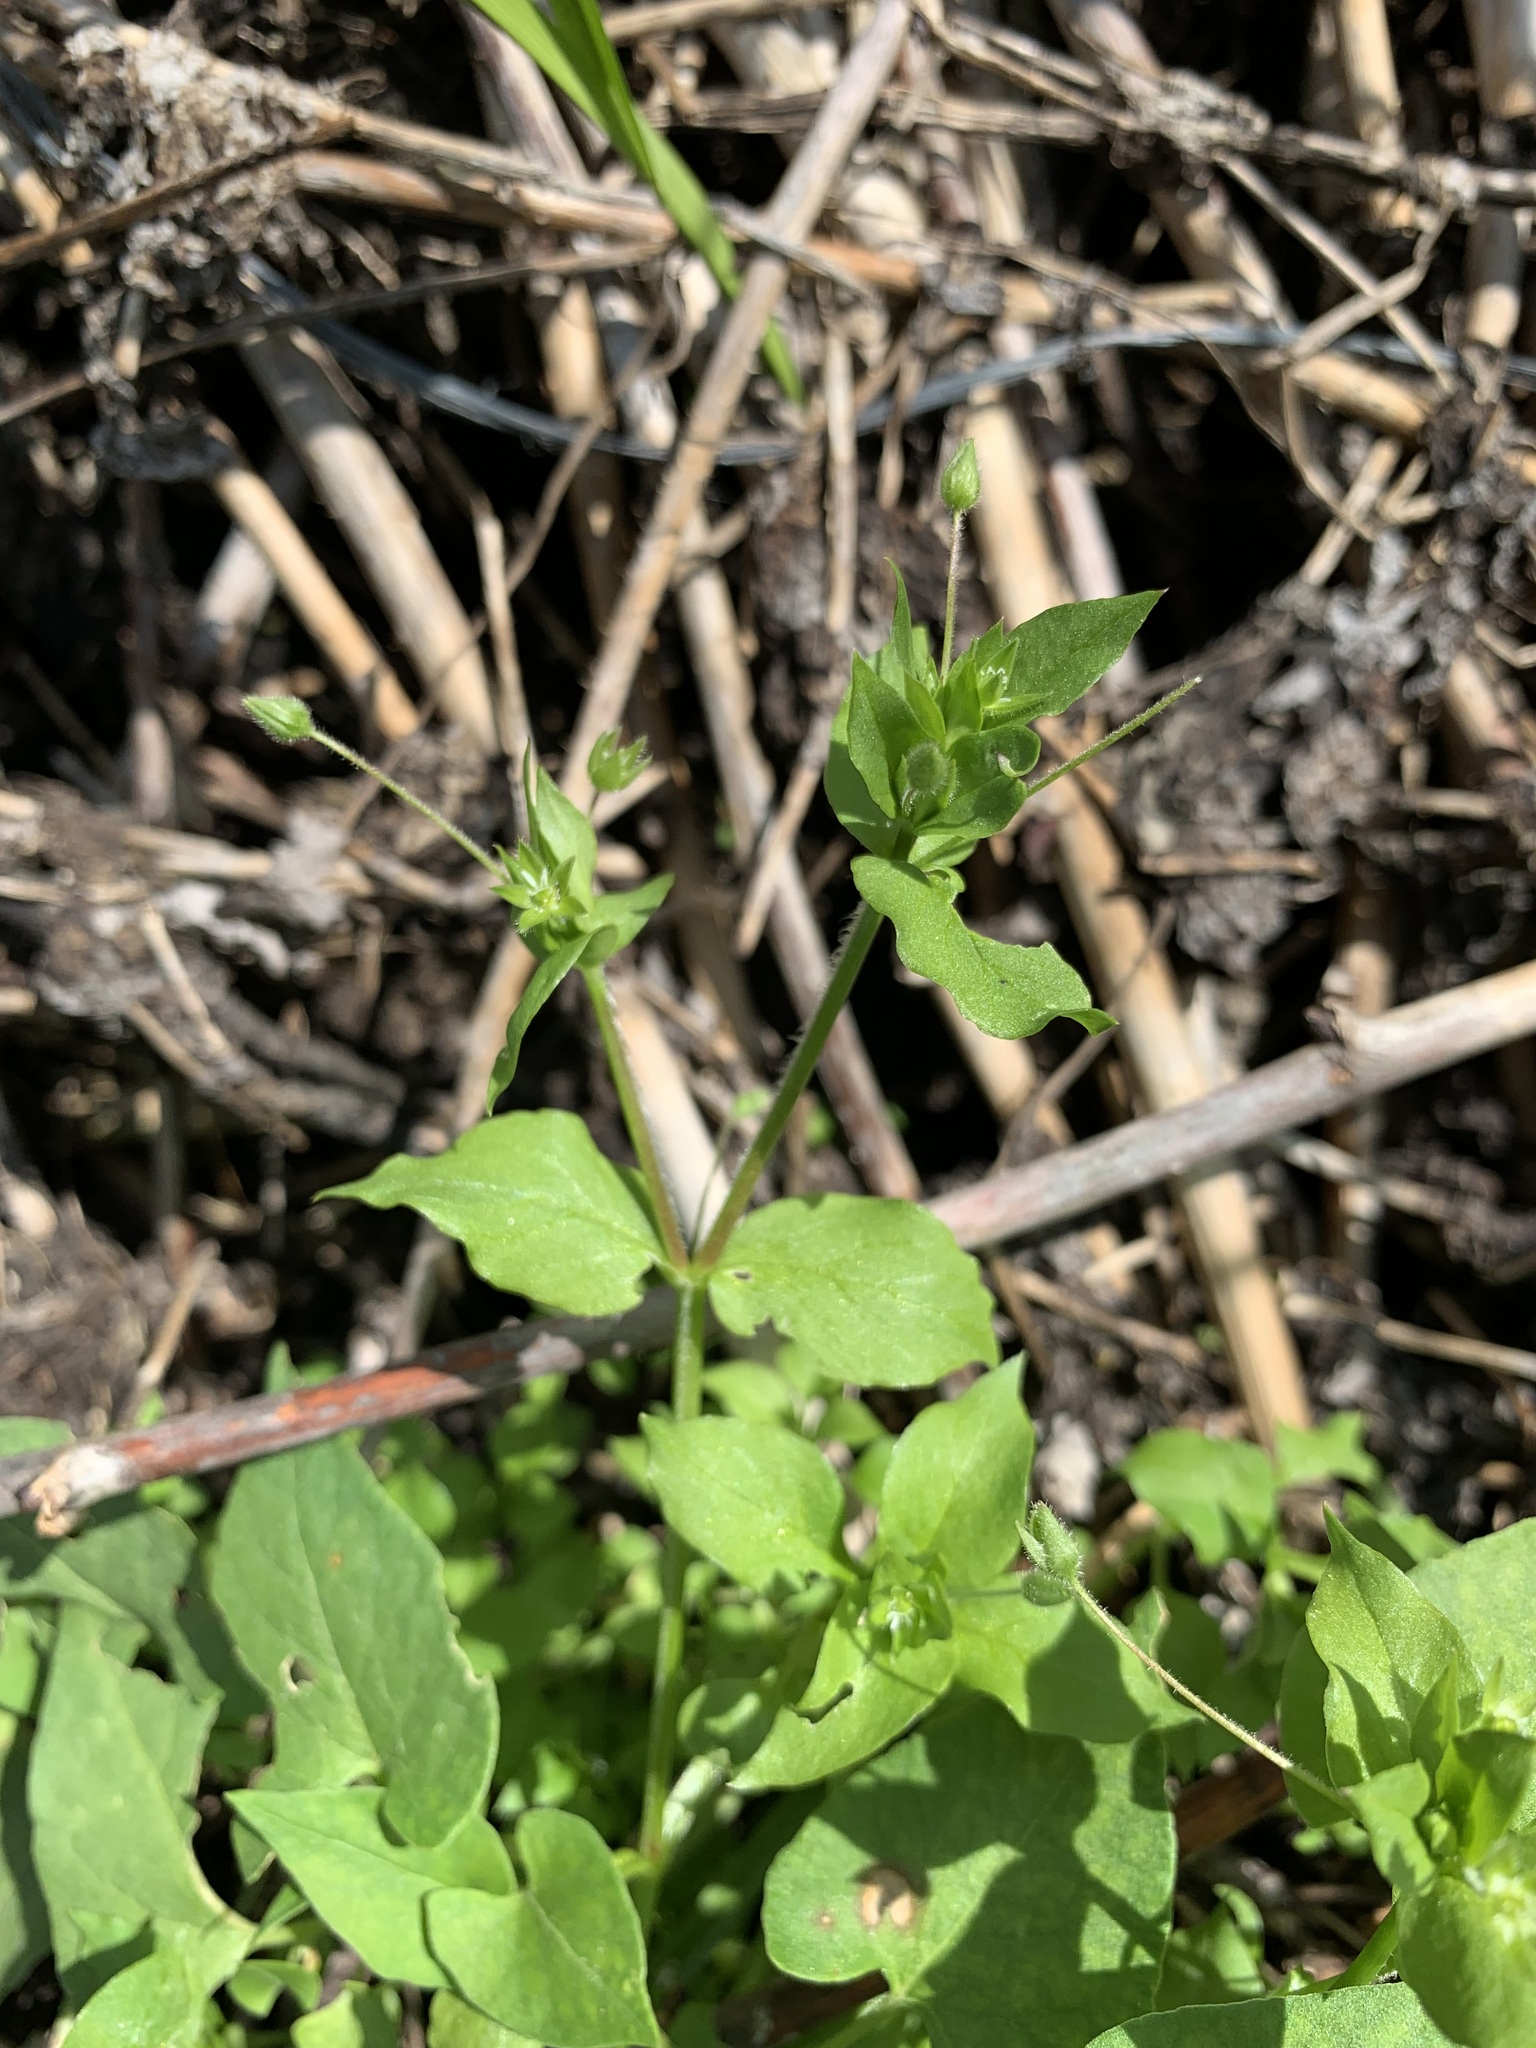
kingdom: Plantae
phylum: Tracheophyta
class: Magnoliopsida
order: Caryophyllales
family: Caryophyllaceae
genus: Stellaria
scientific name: Stellaria media
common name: Common chickweed
